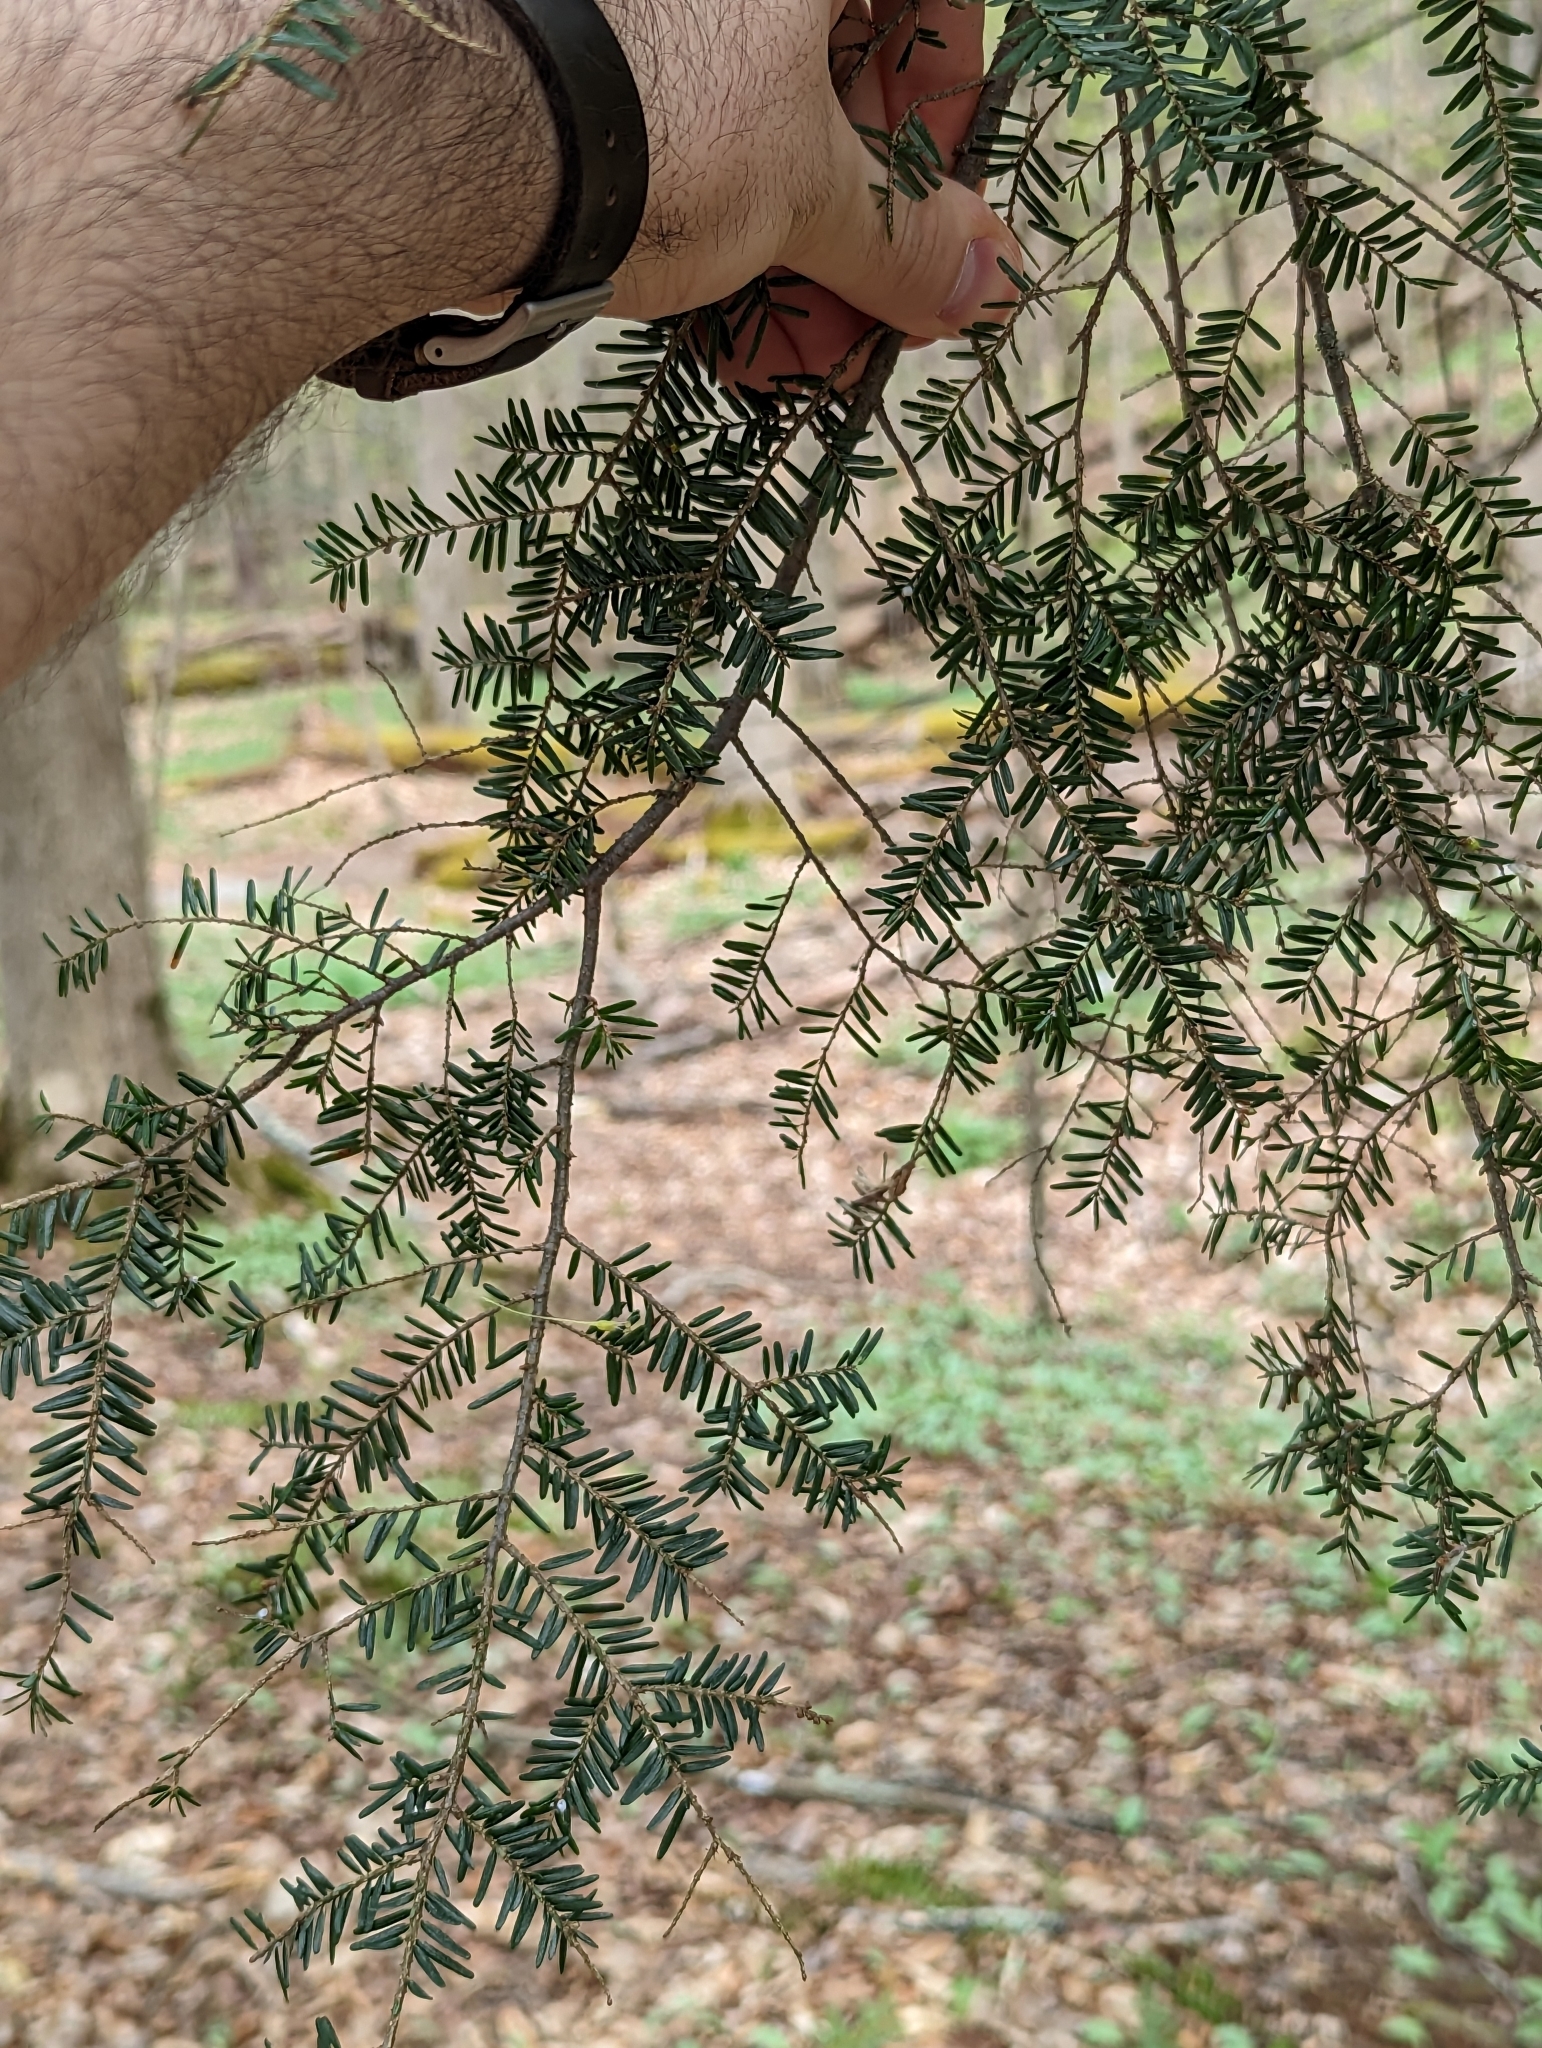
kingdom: Animalia
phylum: Arthropoda
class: Insecta
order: Coleoptera
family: Buprestidae
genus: Phaenops
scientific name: Phaenops fulvoguttata
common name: Hemlock borer
